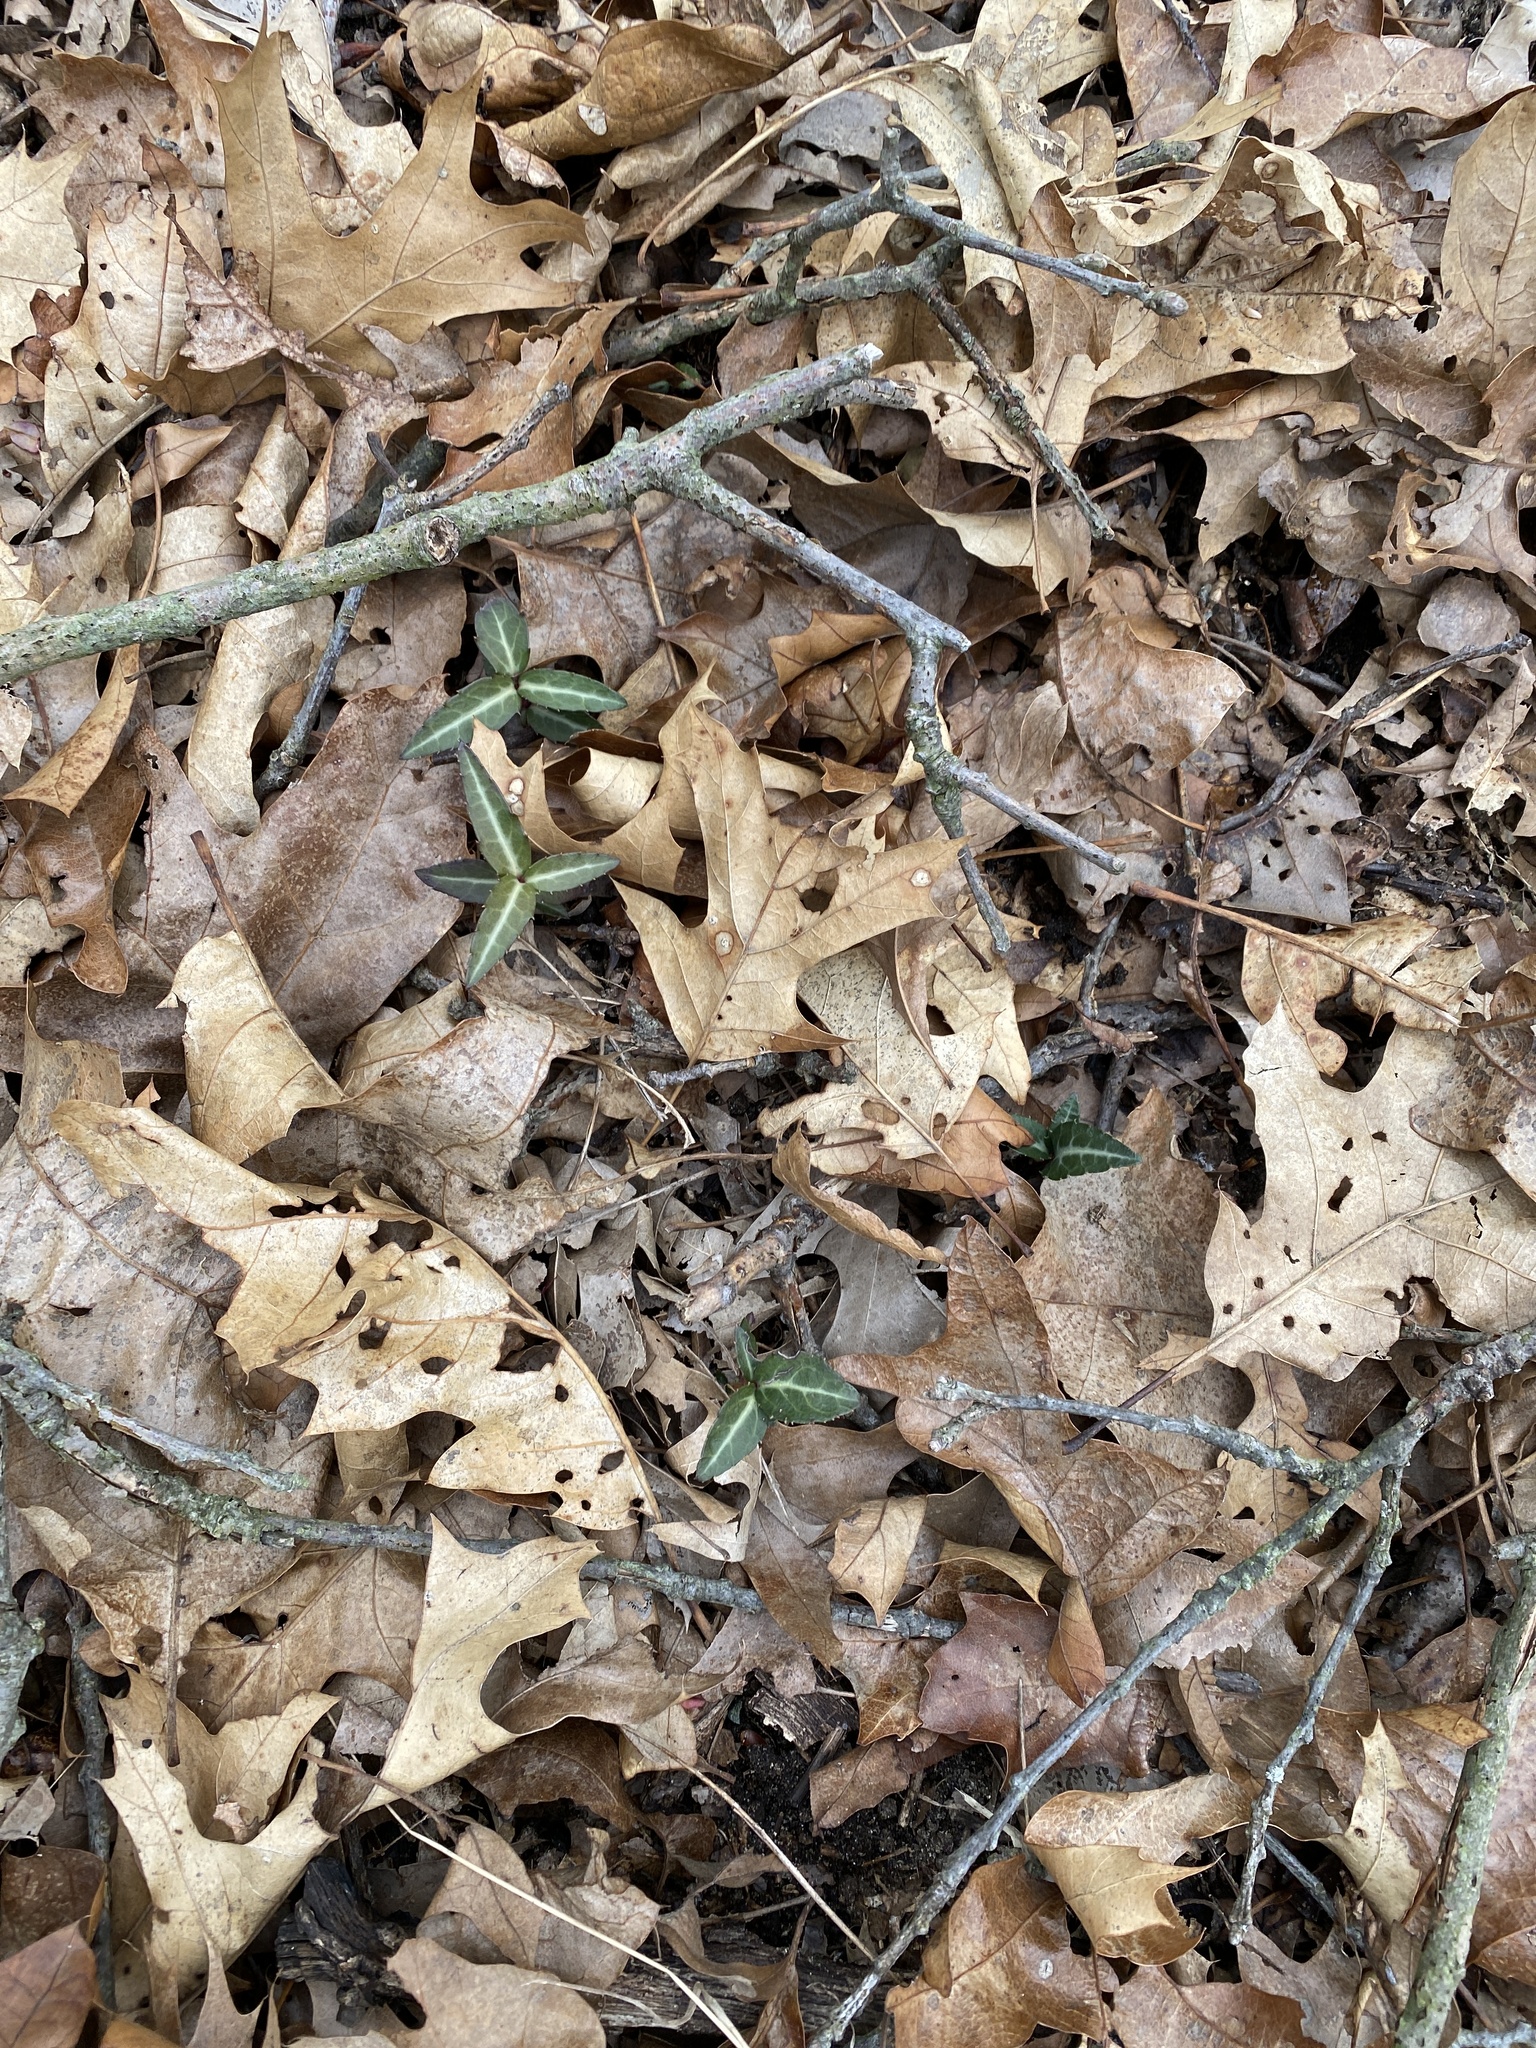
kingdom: Plantae
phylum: Tracheophyta
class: Magnoliopsida
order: Ericales
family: Ericaceae
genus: Chimaphila
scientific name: Chimaphila maculata
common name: Spotted pipsissewa
